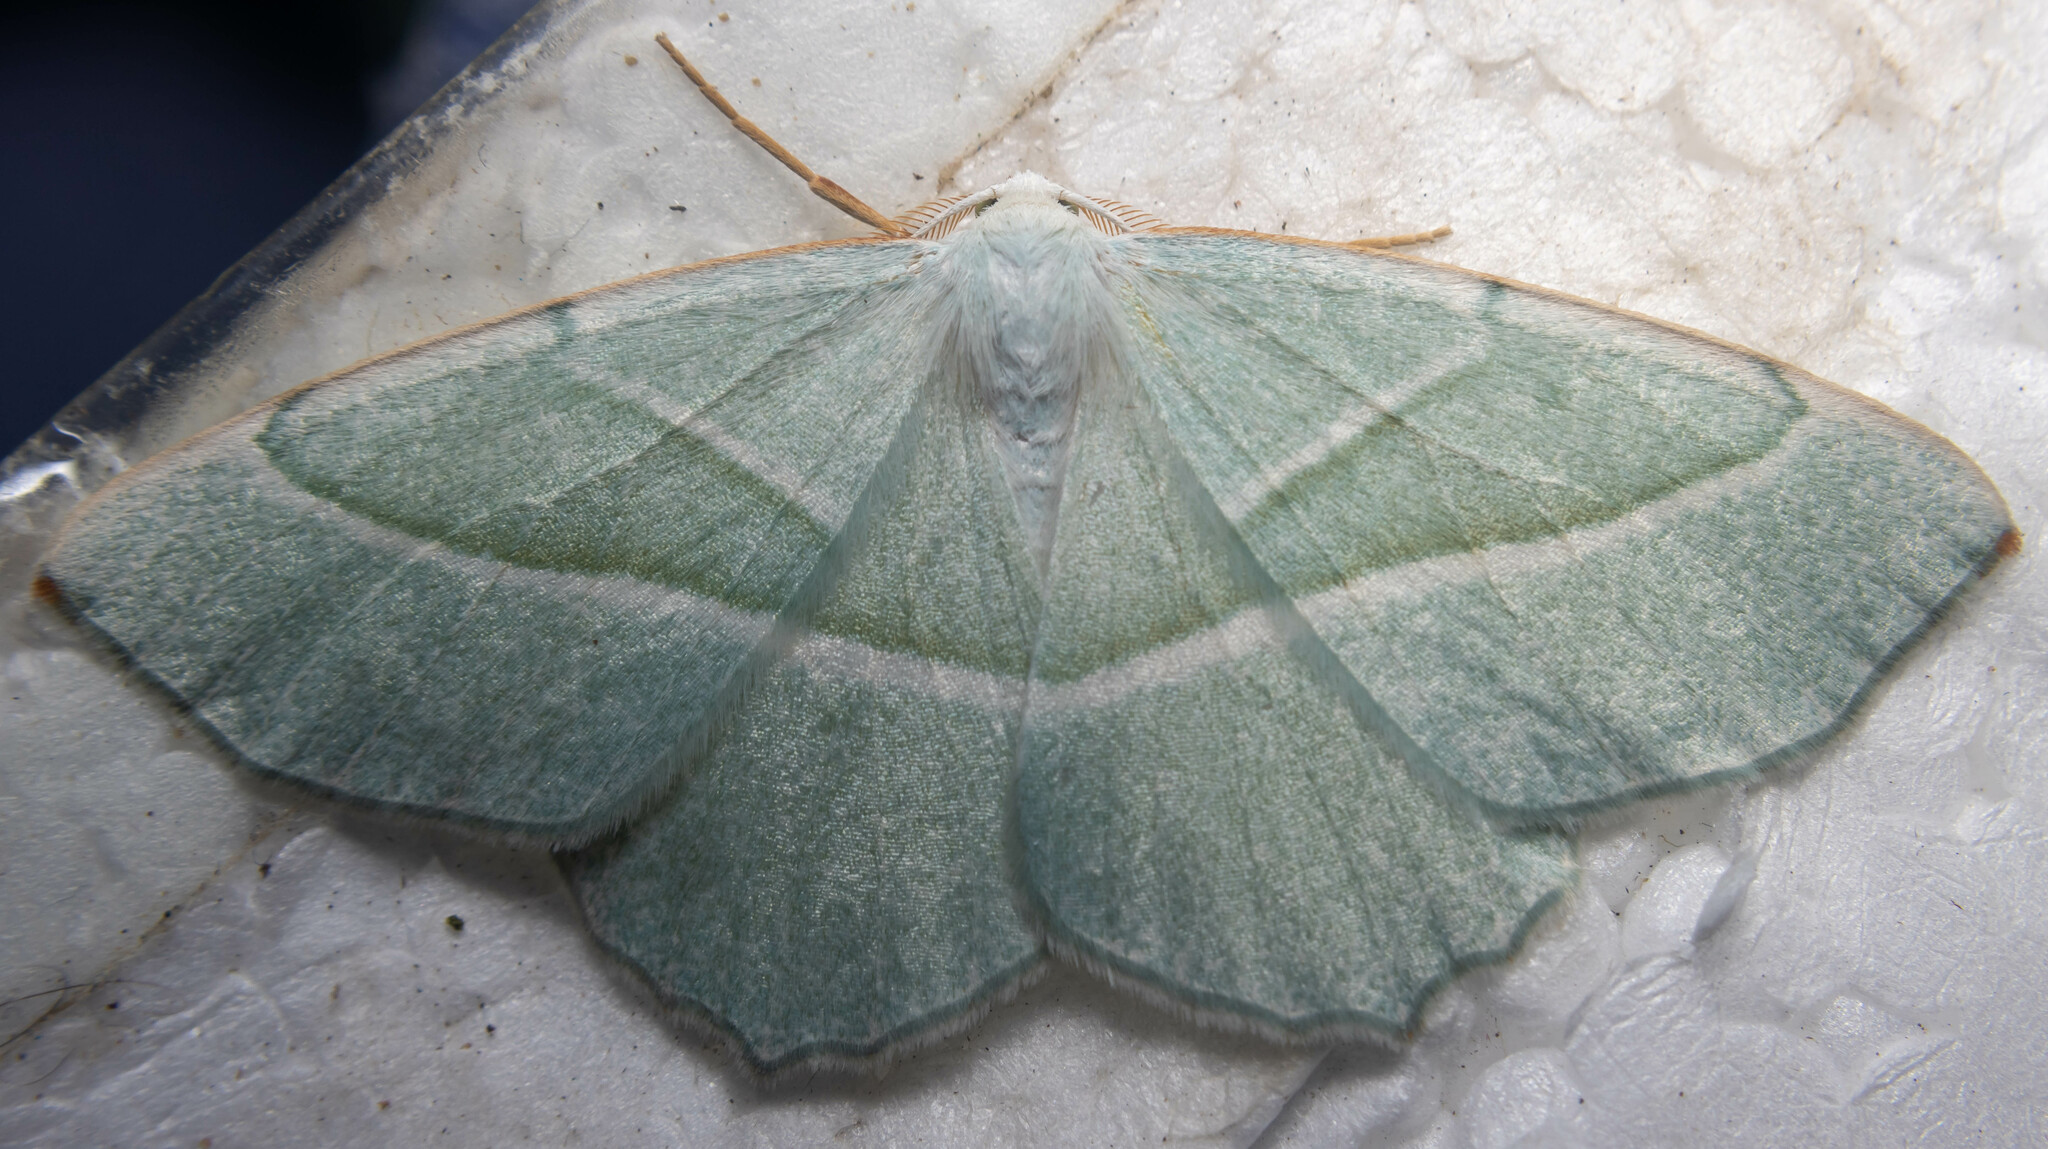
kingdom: Animalia
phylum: Arthropoda
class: Insecta
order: Lepidoptera
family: Geometridae
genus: Campaea
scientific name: Campaea margaritaria
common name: Light emerald
